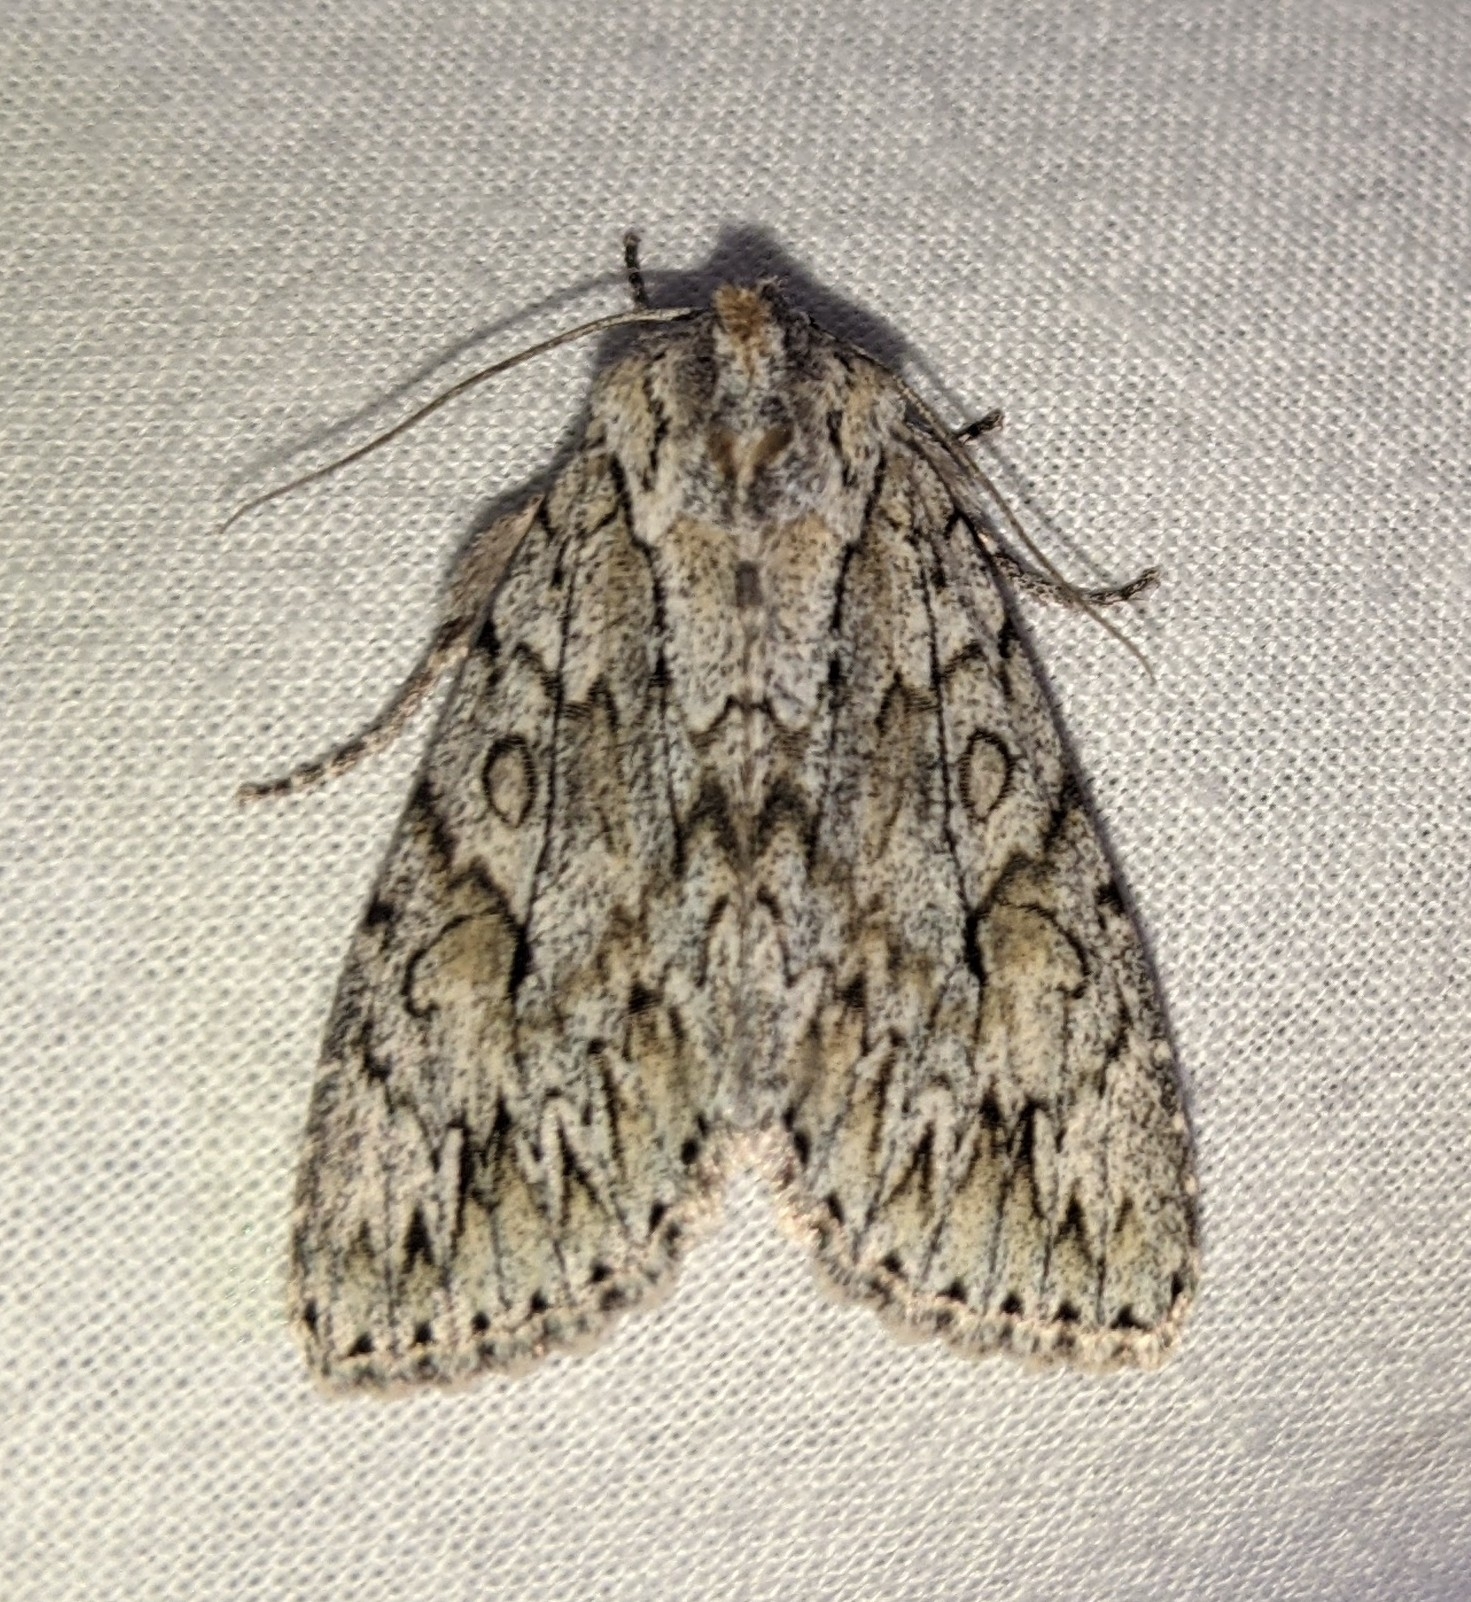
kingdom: Animalia
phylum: Arthropoda
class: Insecta
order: Lepidoptera
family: Noctuidae
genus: Andropolia
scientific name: Andropolia aedon
